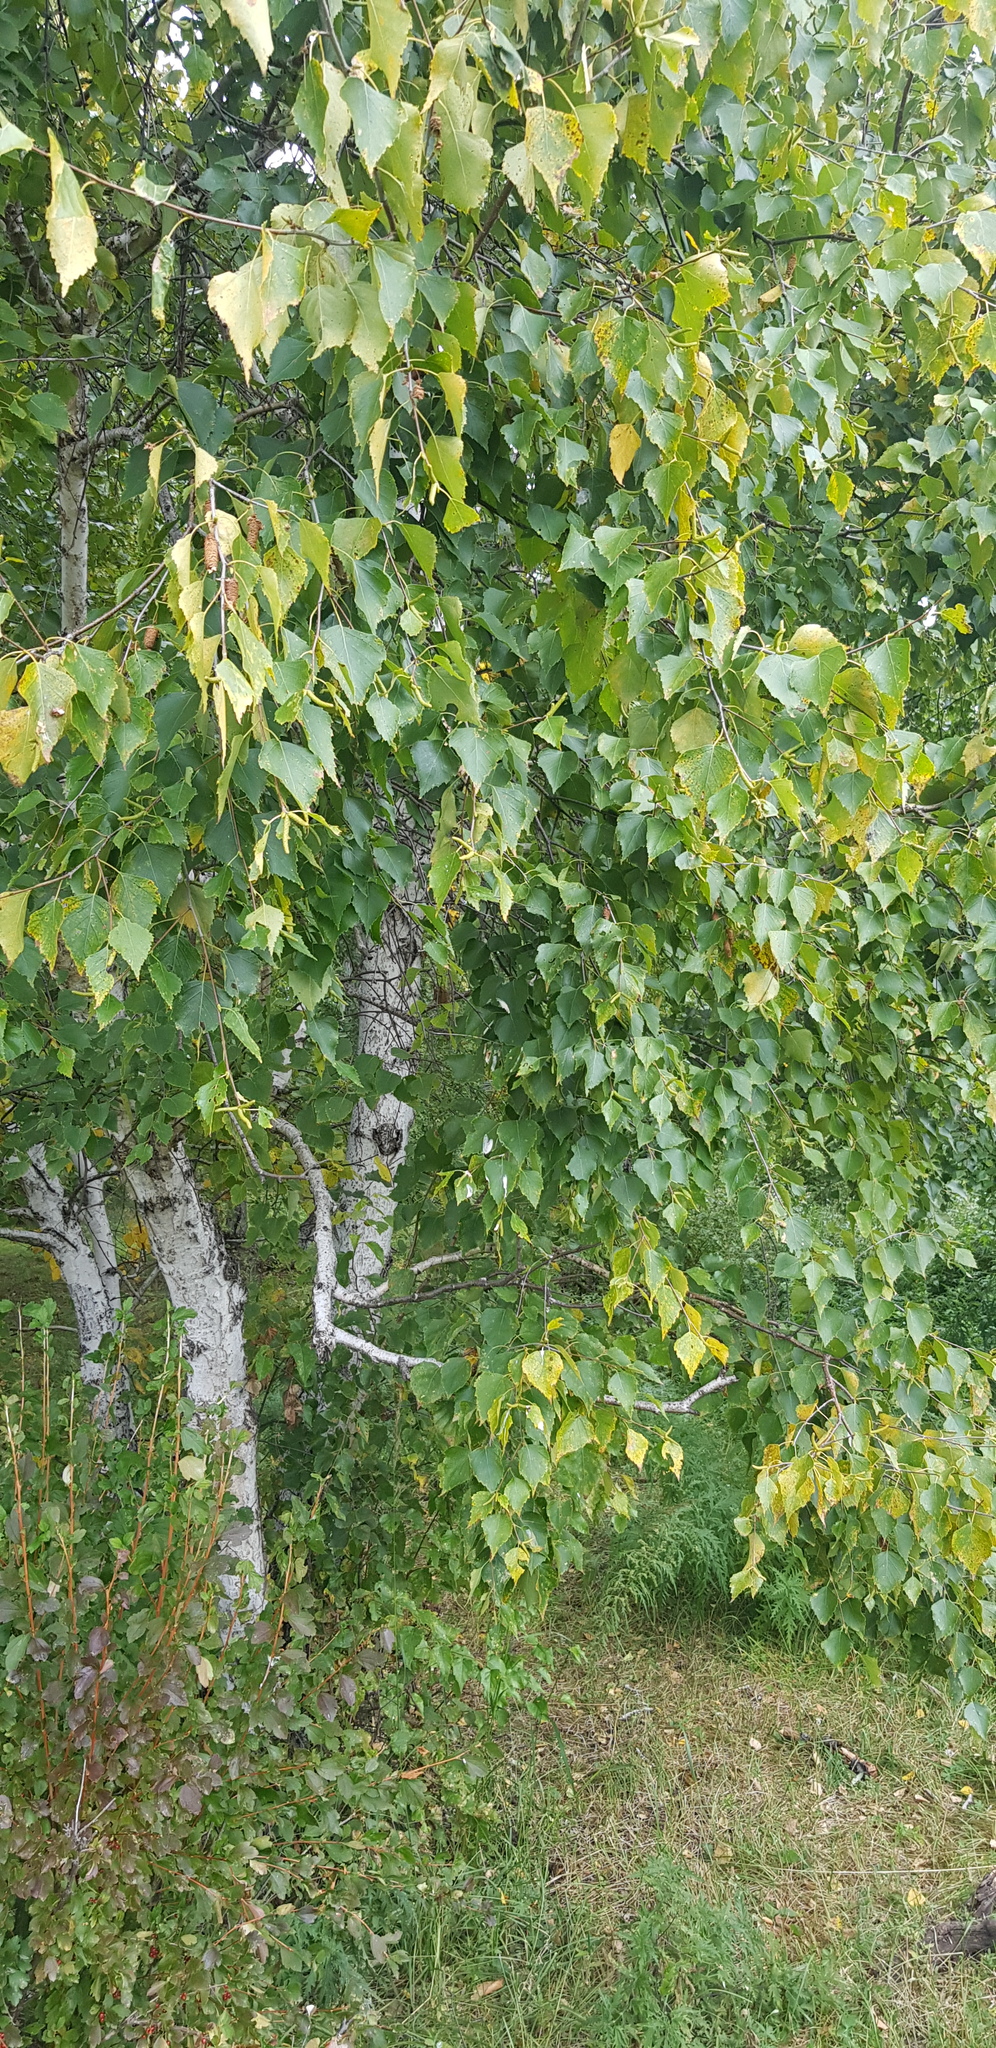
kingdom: Plantae
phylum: Tracheophyta
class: Magnoliopsida
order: Fagales
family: Betulaceae
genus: Betula
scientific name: Betula pendula
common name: Silver birch
